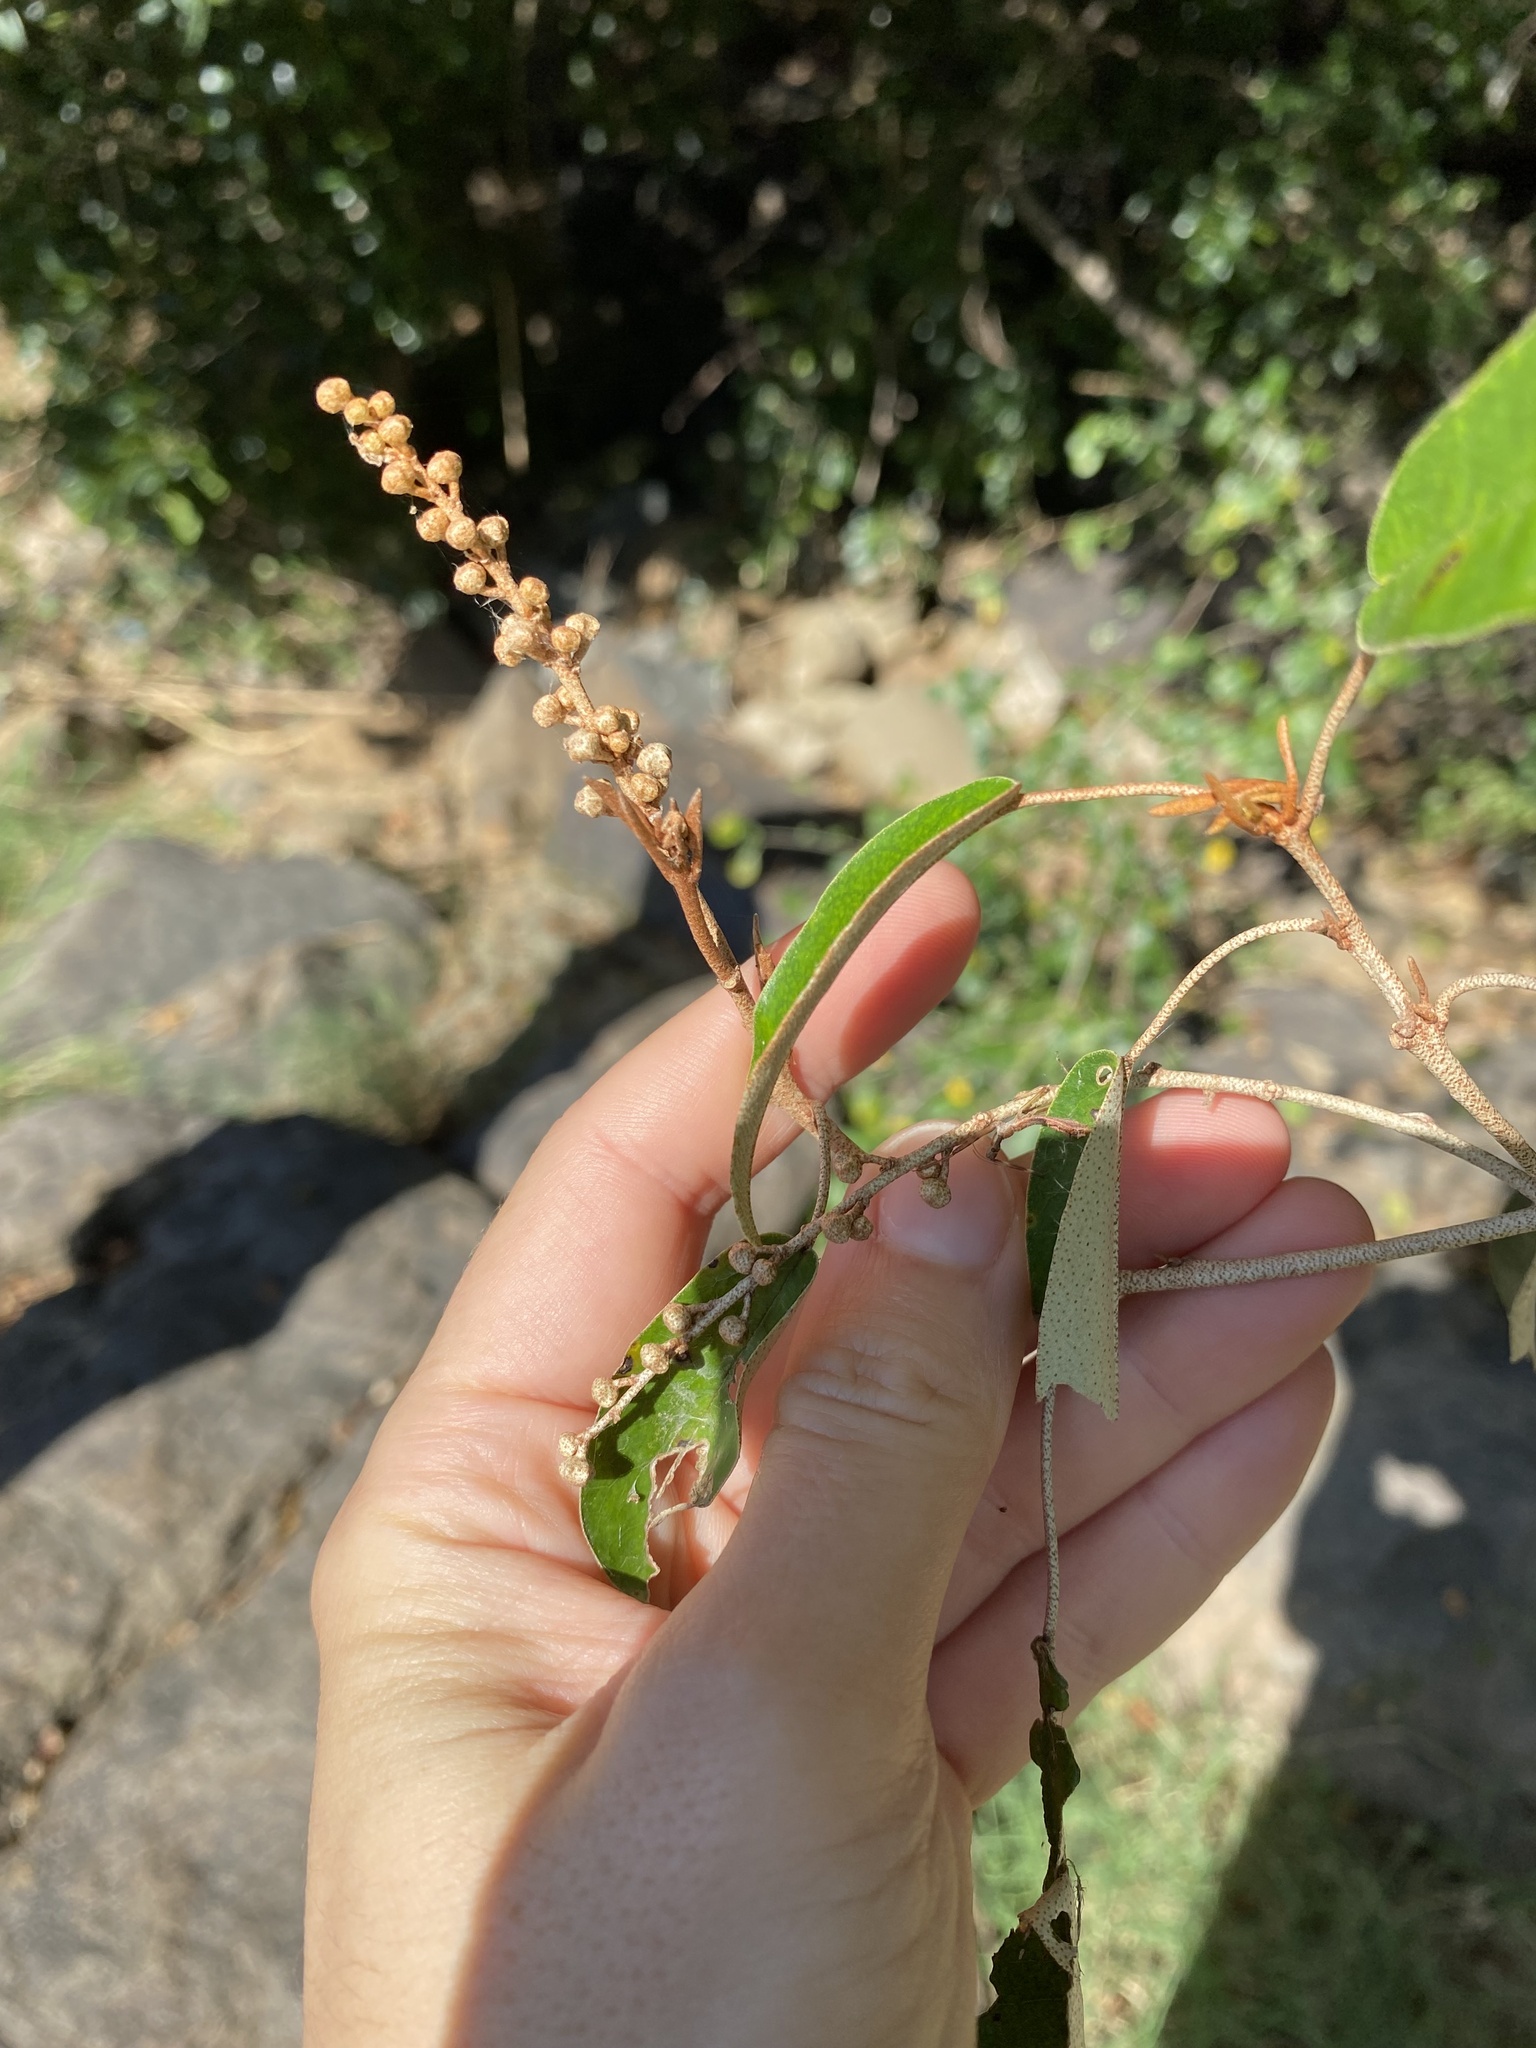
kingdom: Plantae
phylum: Tracheophyta
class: Magnoliopsida
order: Malpighiales
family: Euphorbiaceae
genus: Croton
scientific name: Croton gratissimus
